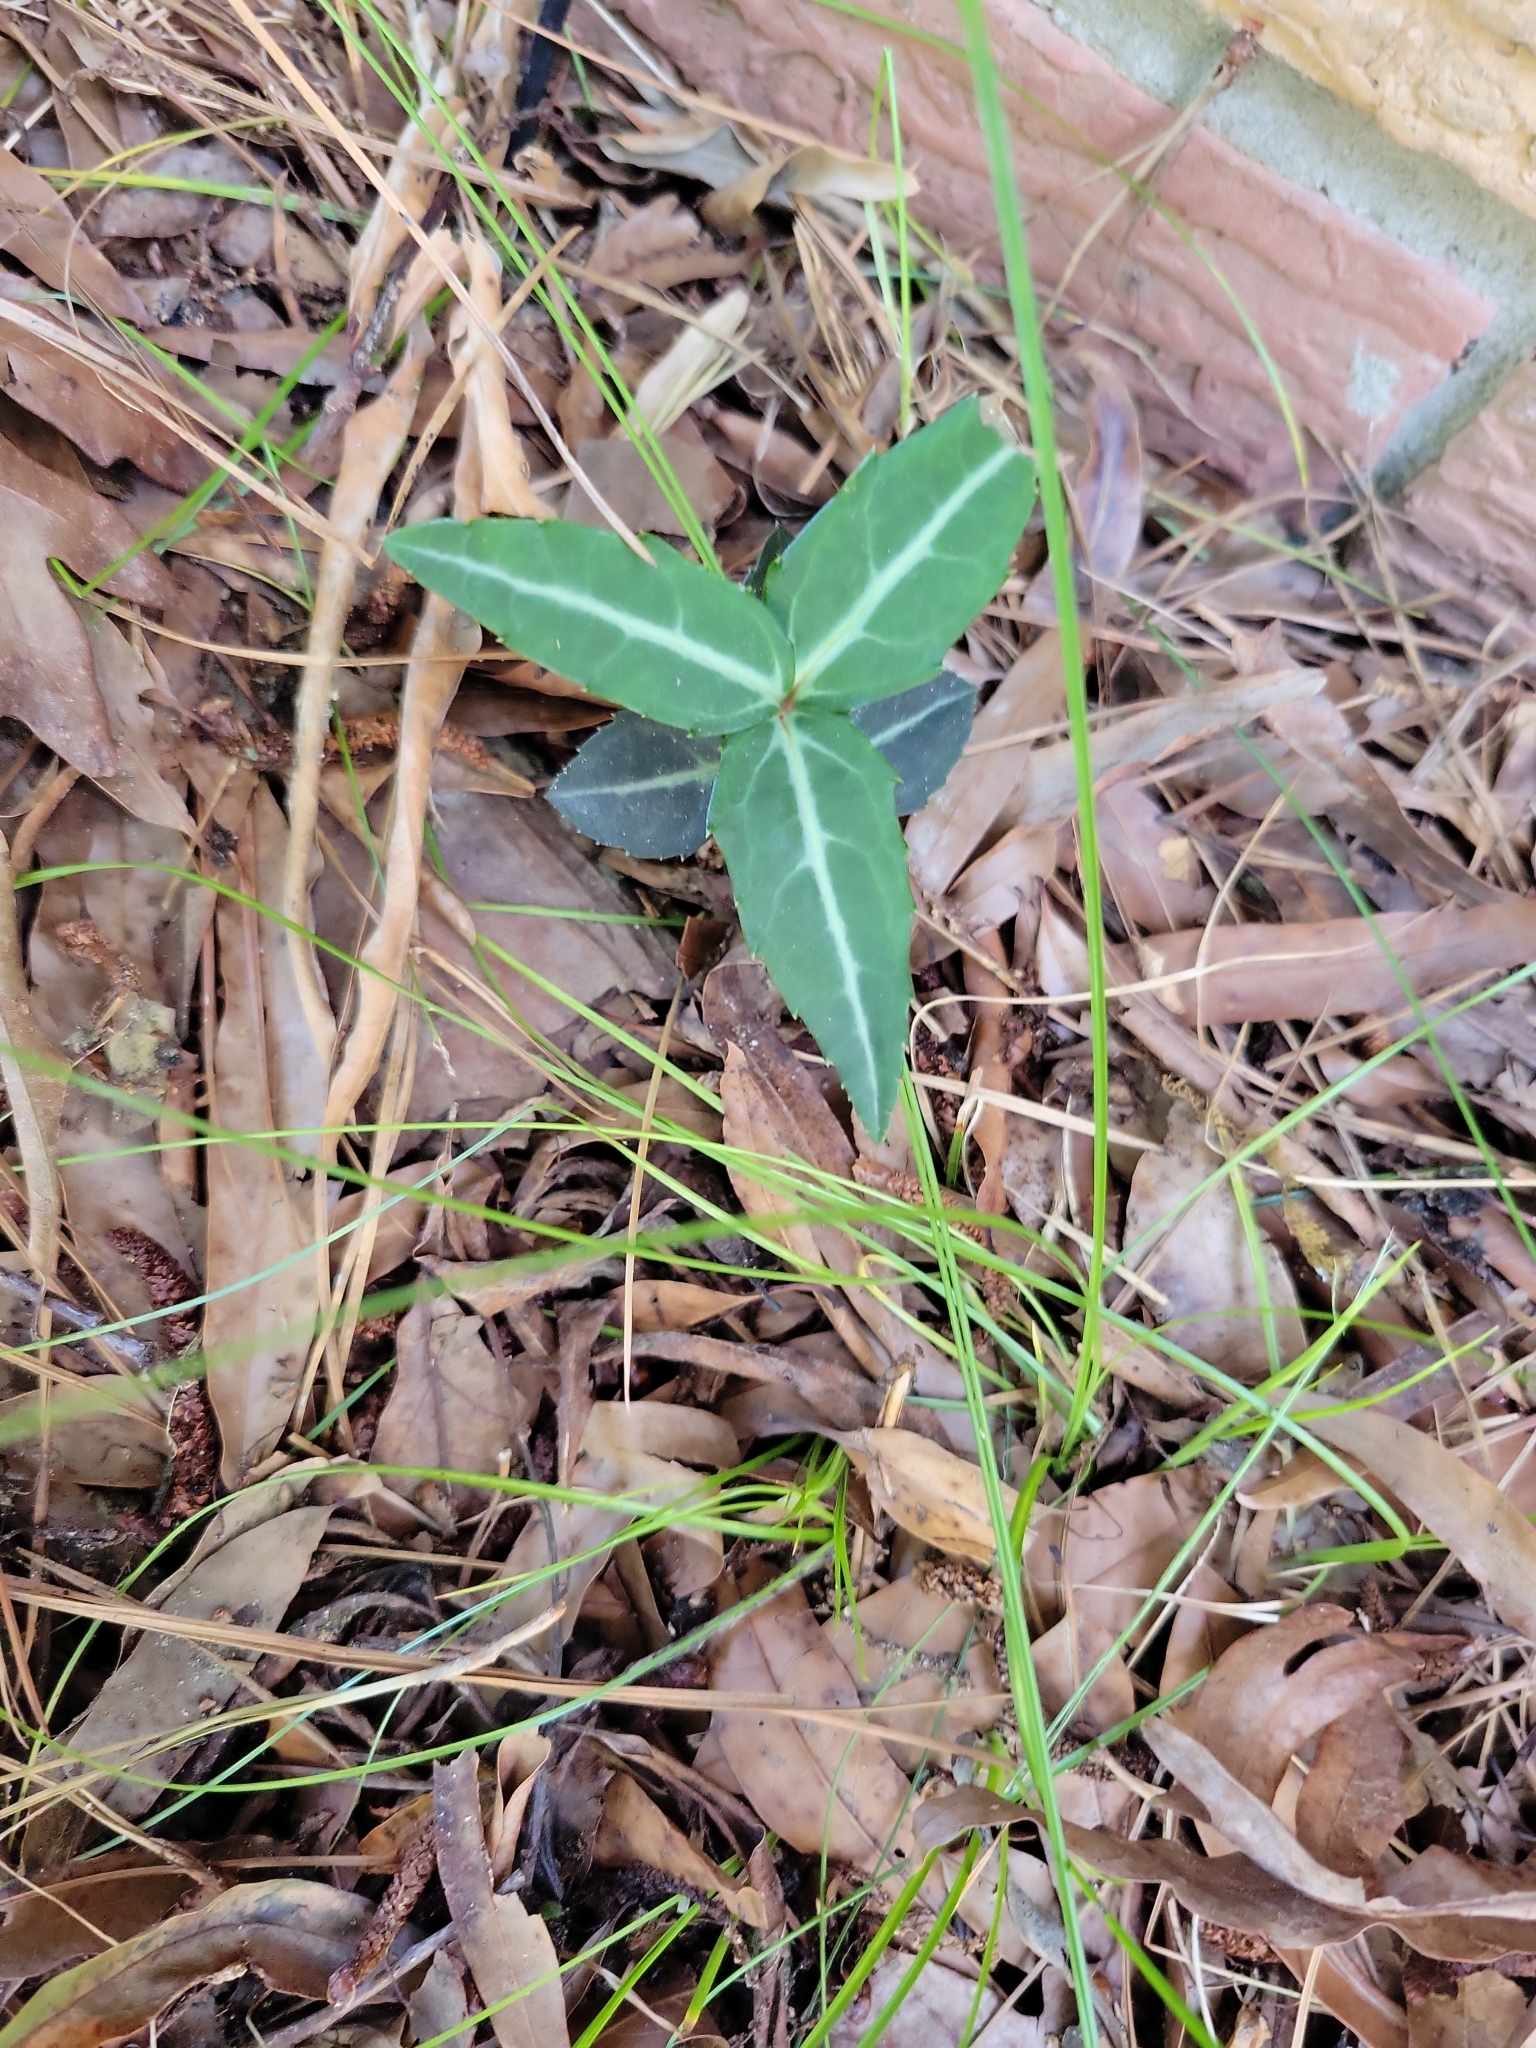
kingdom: Plantae
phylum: Tracheophyta
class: Magnoliopsida
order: Ericales
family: Ericaceae
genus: Chimaphila
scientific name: Chimaphila maculata
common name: Spotted pipsissewa
